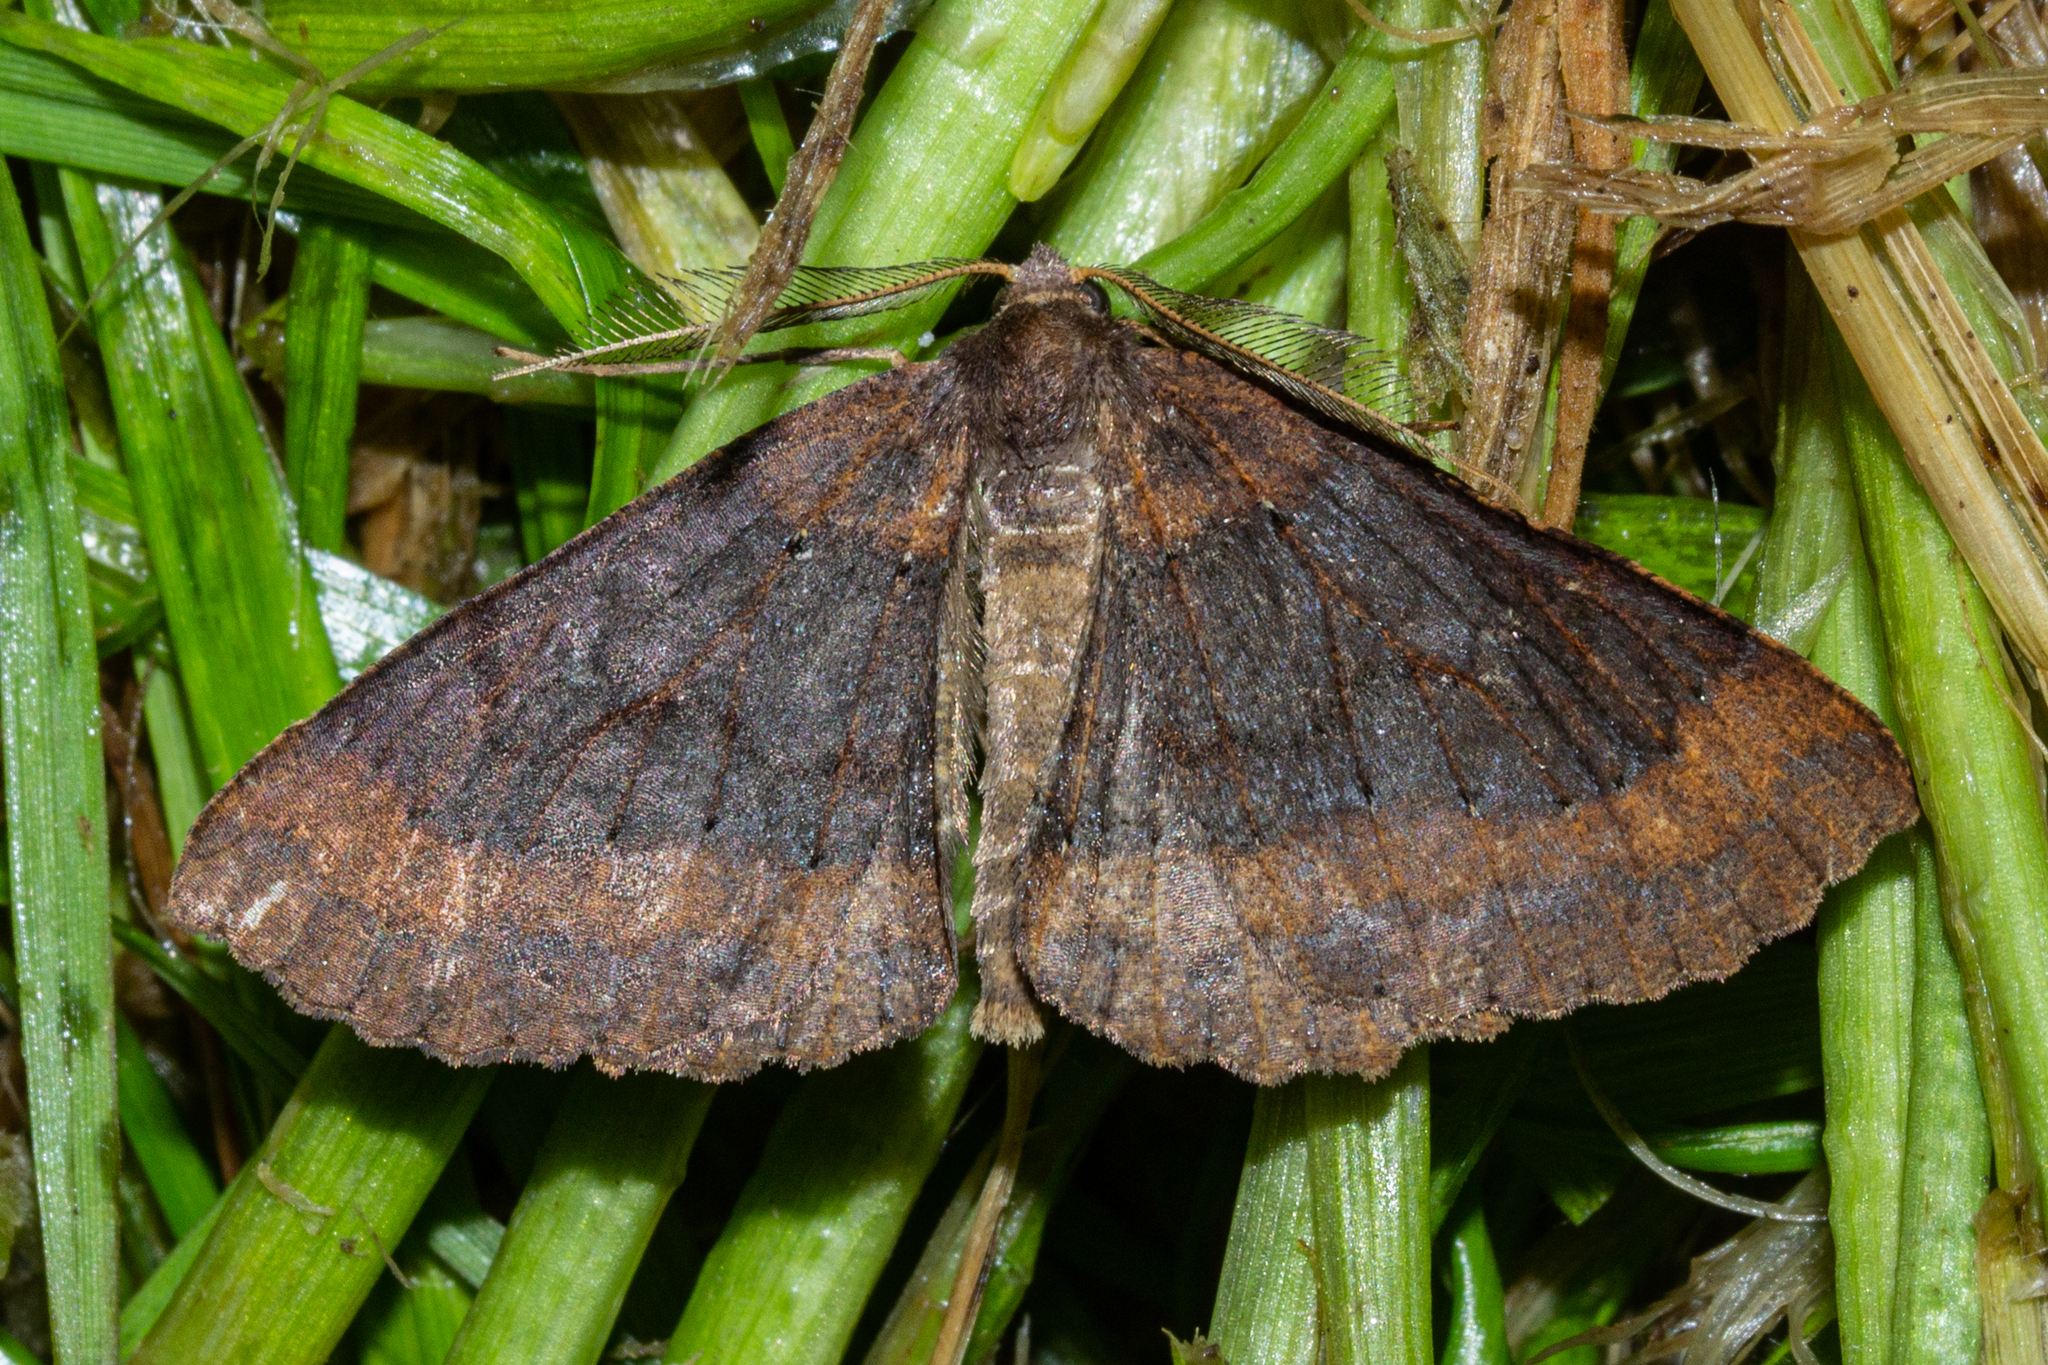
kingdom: Animalia
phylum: Arthropoda
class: Insecta
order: Lepidoptera
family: Geometridae
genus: Cleora
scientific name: Cleora scriptaria
